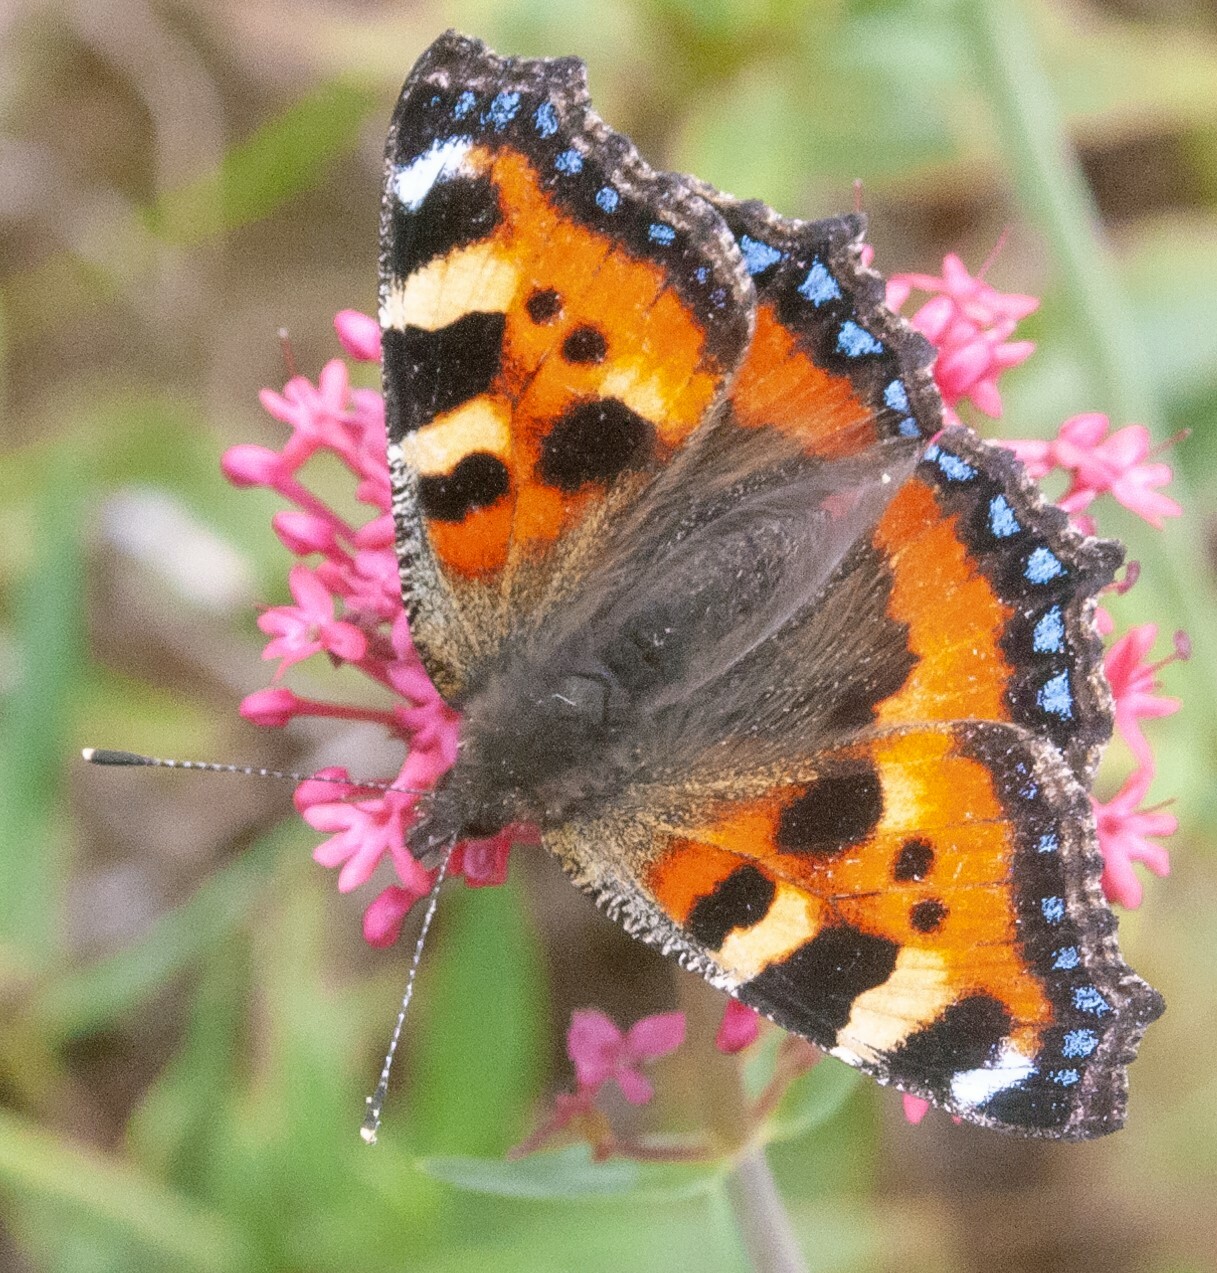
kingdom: Animalia
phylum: Arthropoda
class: Insecta
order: Lepidoptera
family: Nymphalidae
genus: Aglais
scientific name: Aglais urticae
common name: Small tortoiseshell
